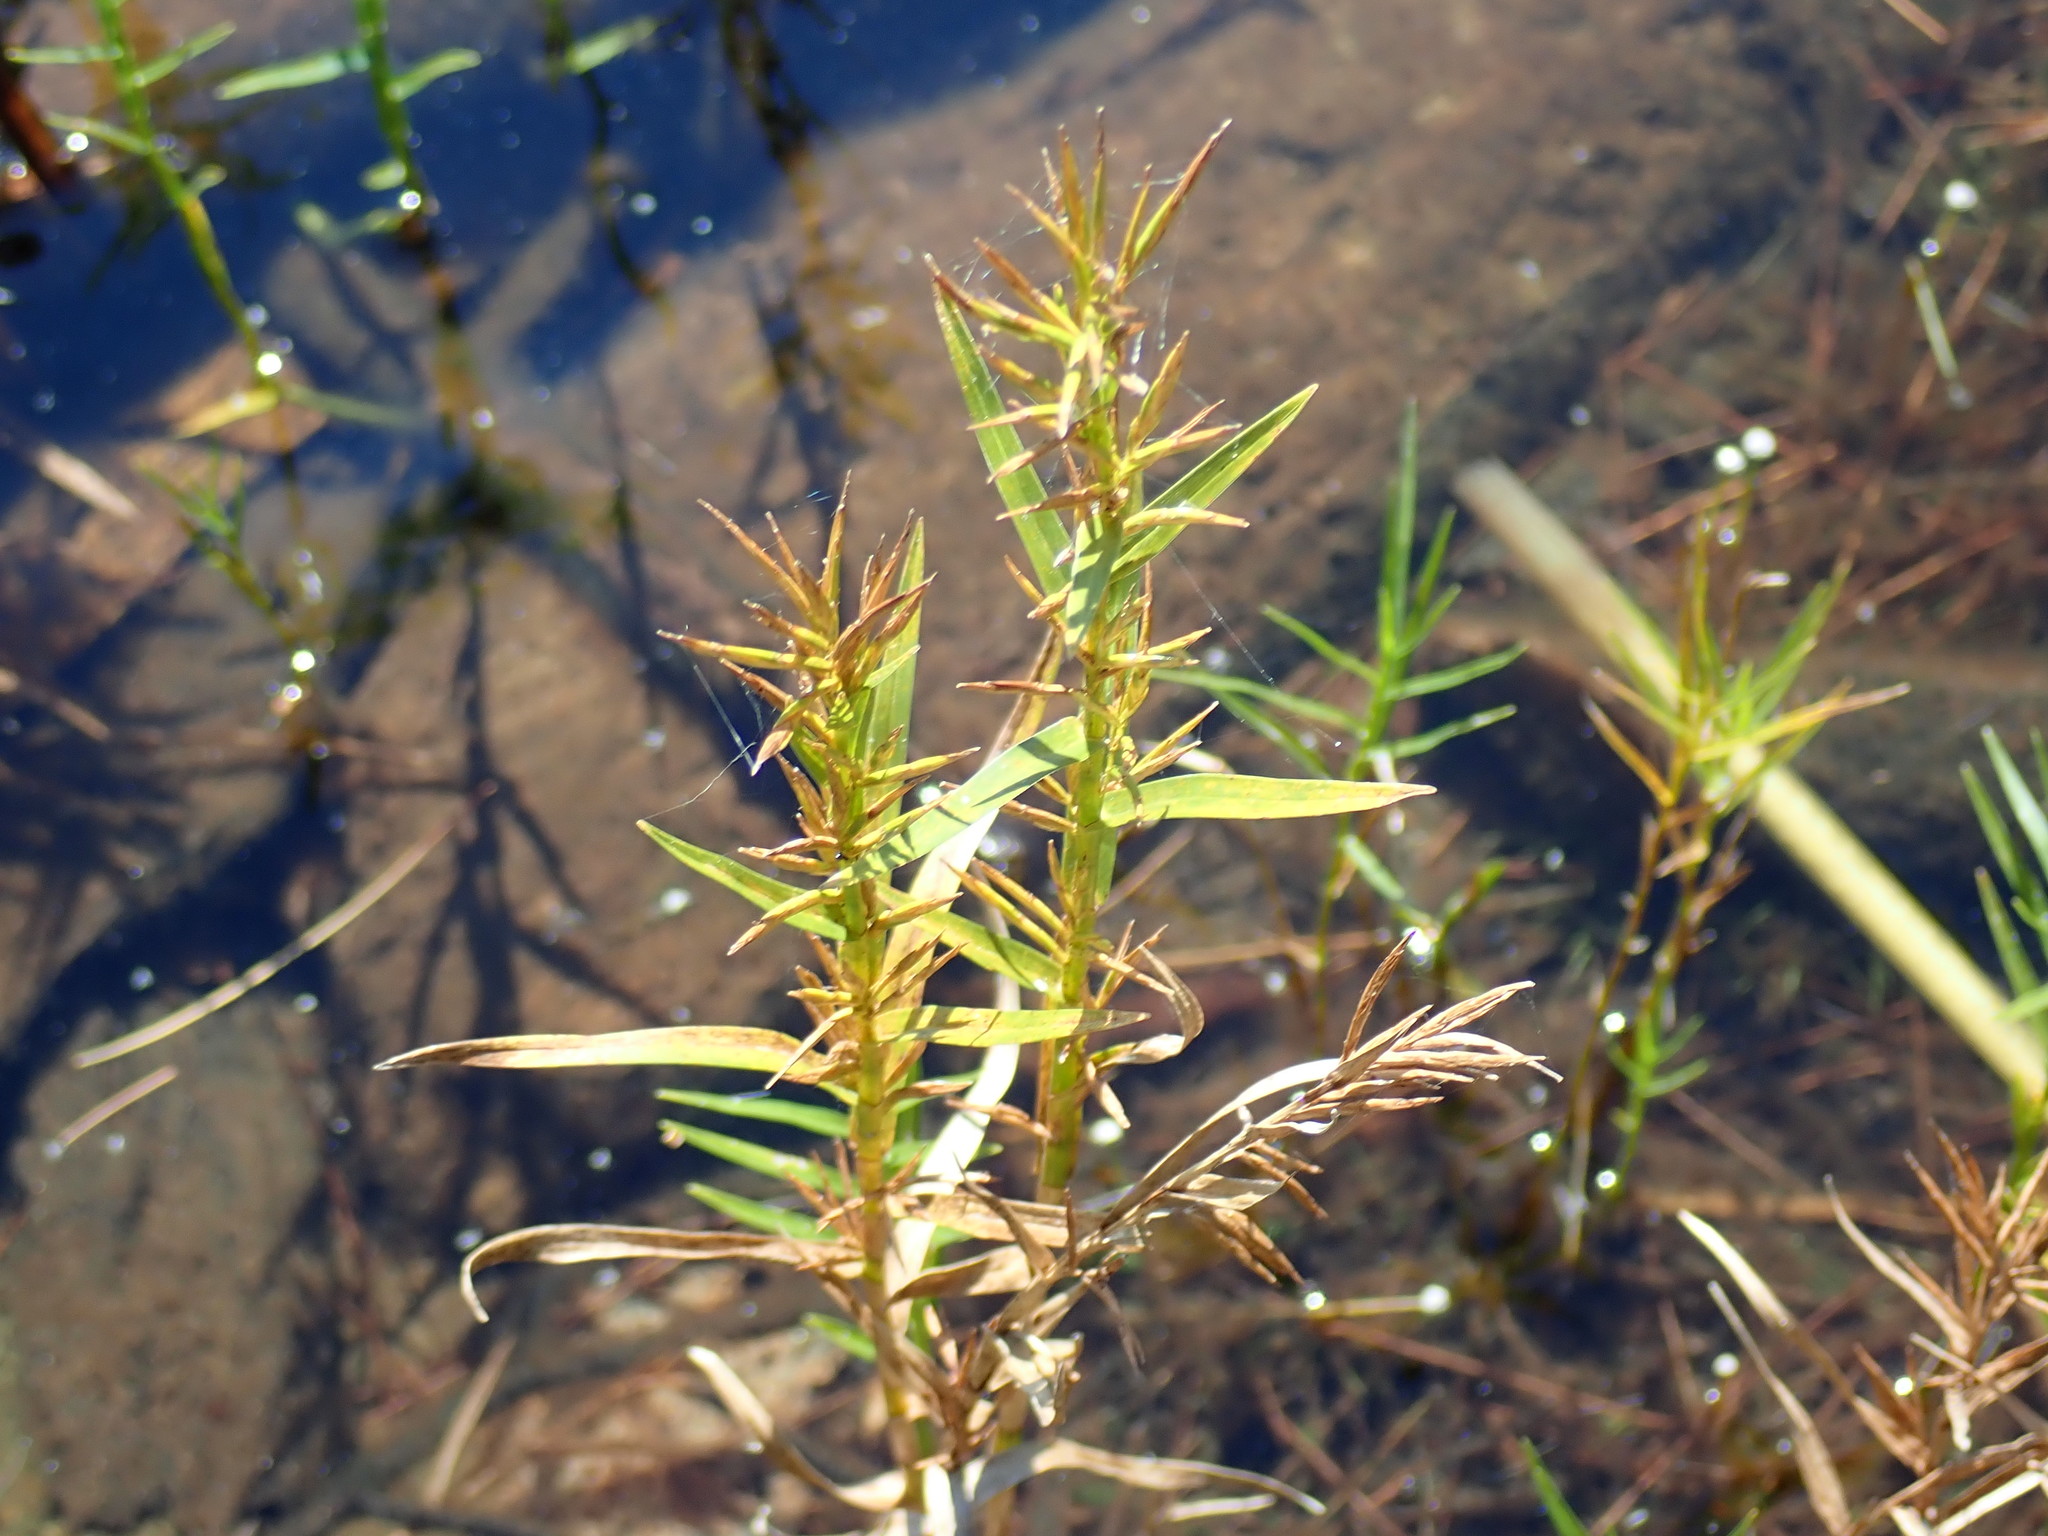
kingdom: Plantae
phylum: Tracheophyta
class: Liliopsida
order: Poales
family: Cyperaceae
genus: Dulichium
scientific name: Dulichium arundinaceum
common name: Three-way sedge
